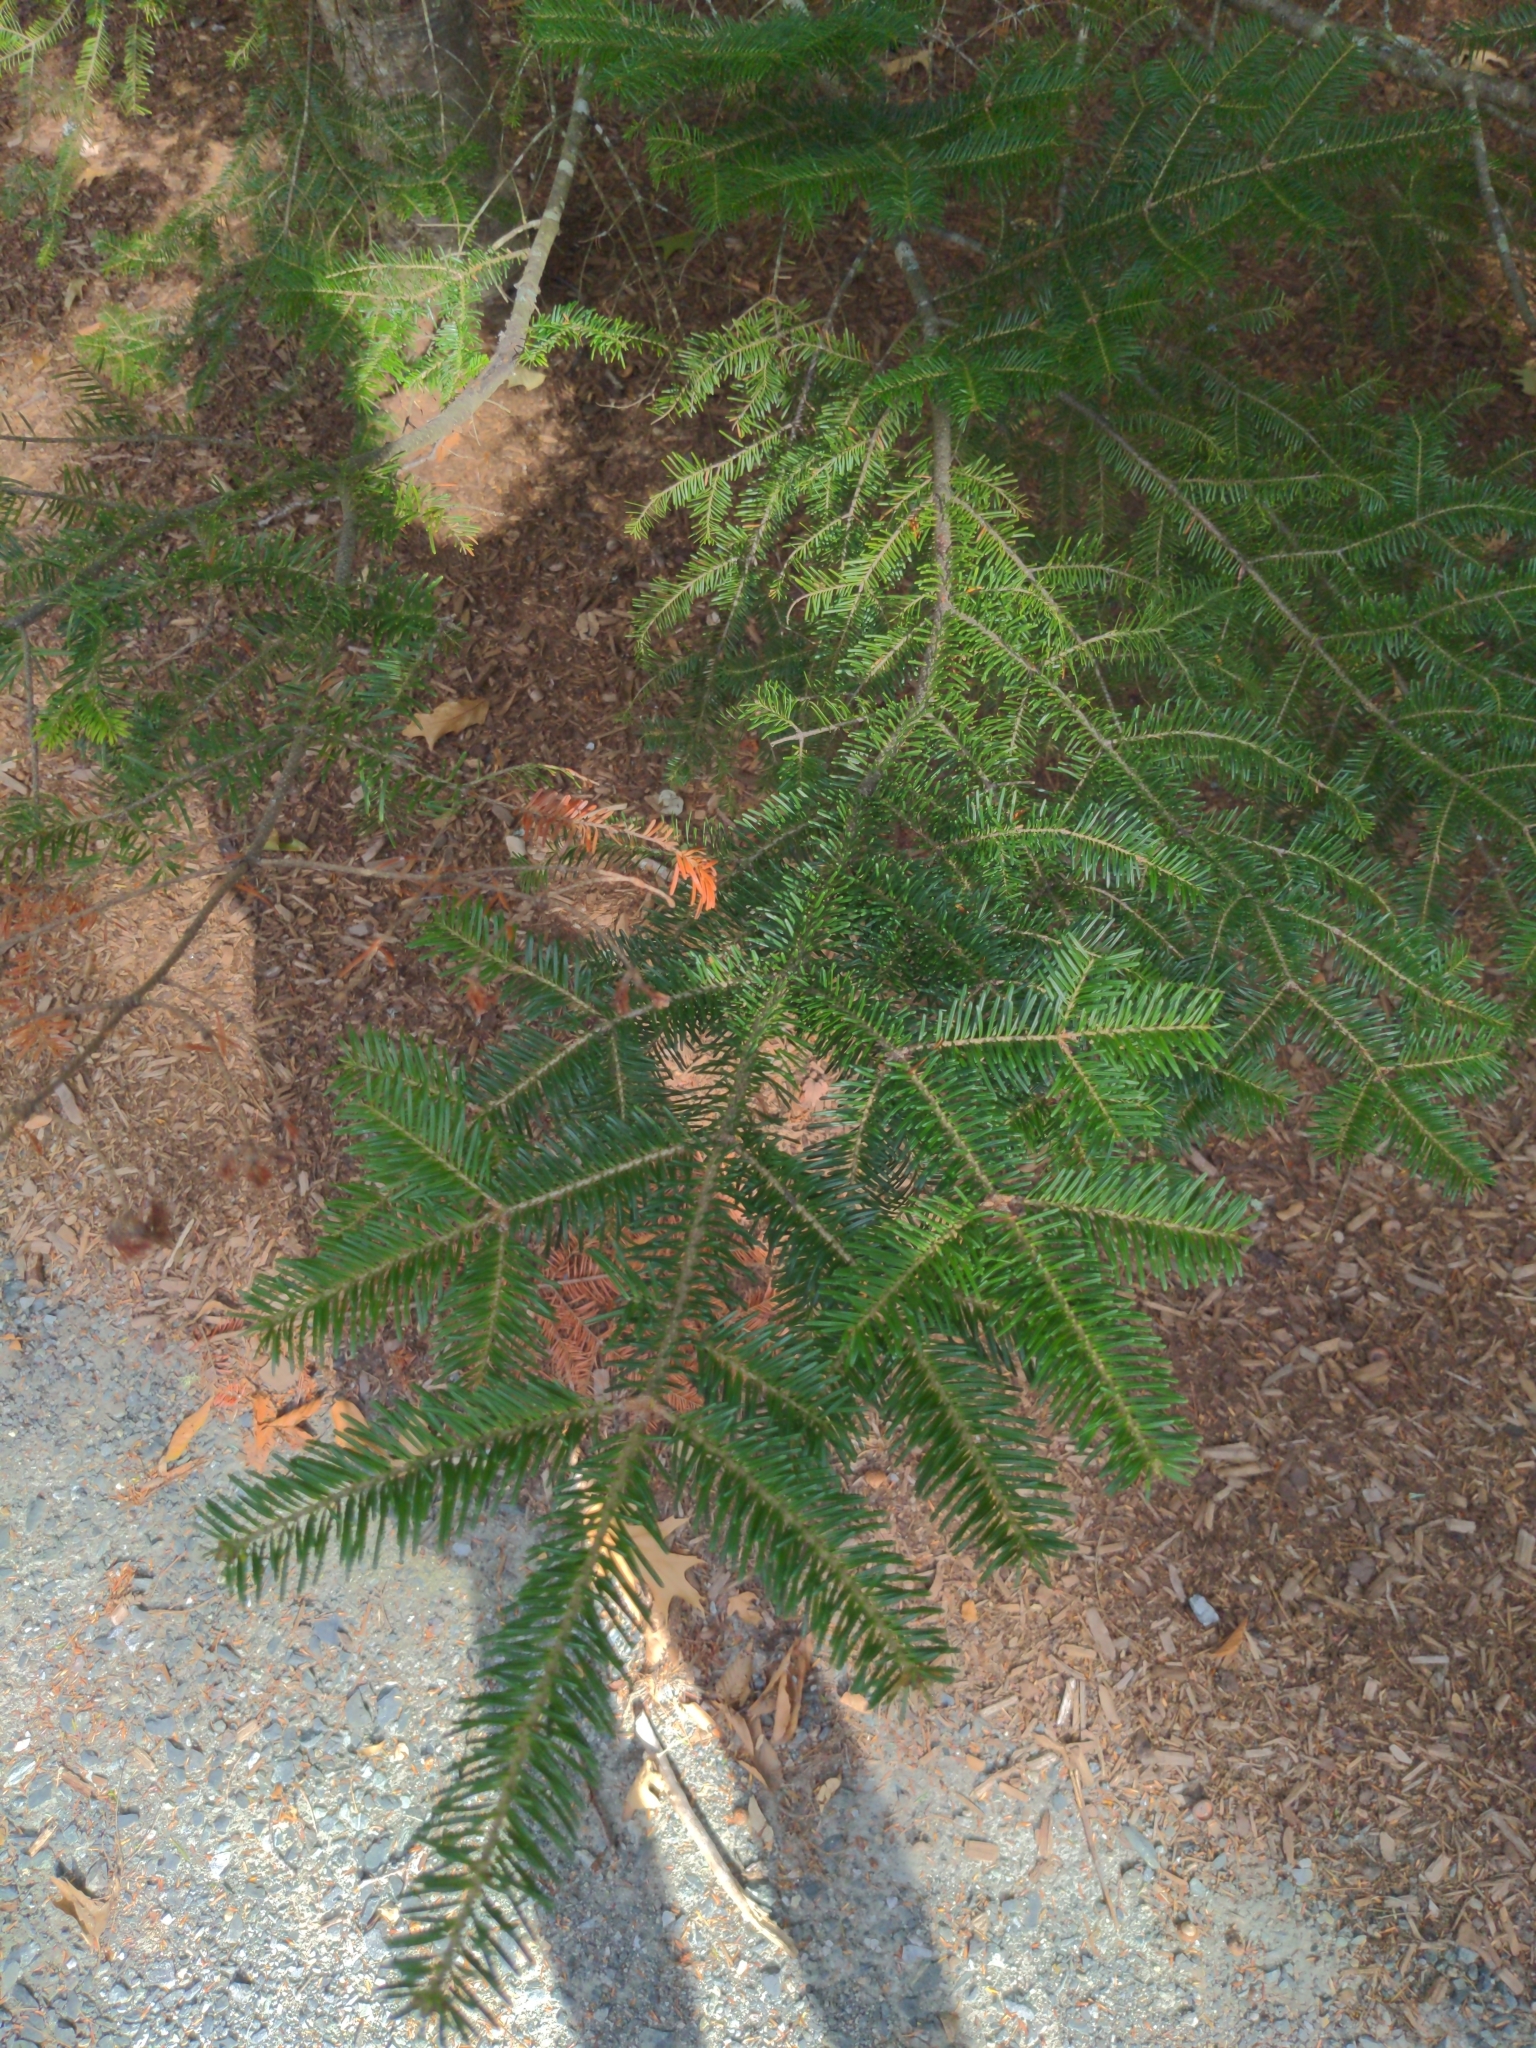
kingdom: Plantae
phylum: Tracheophyta
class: Pinopsida
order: Pinales
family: Pinaceae
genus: Abies
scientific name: Abies balsamea
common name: Balsam fir
